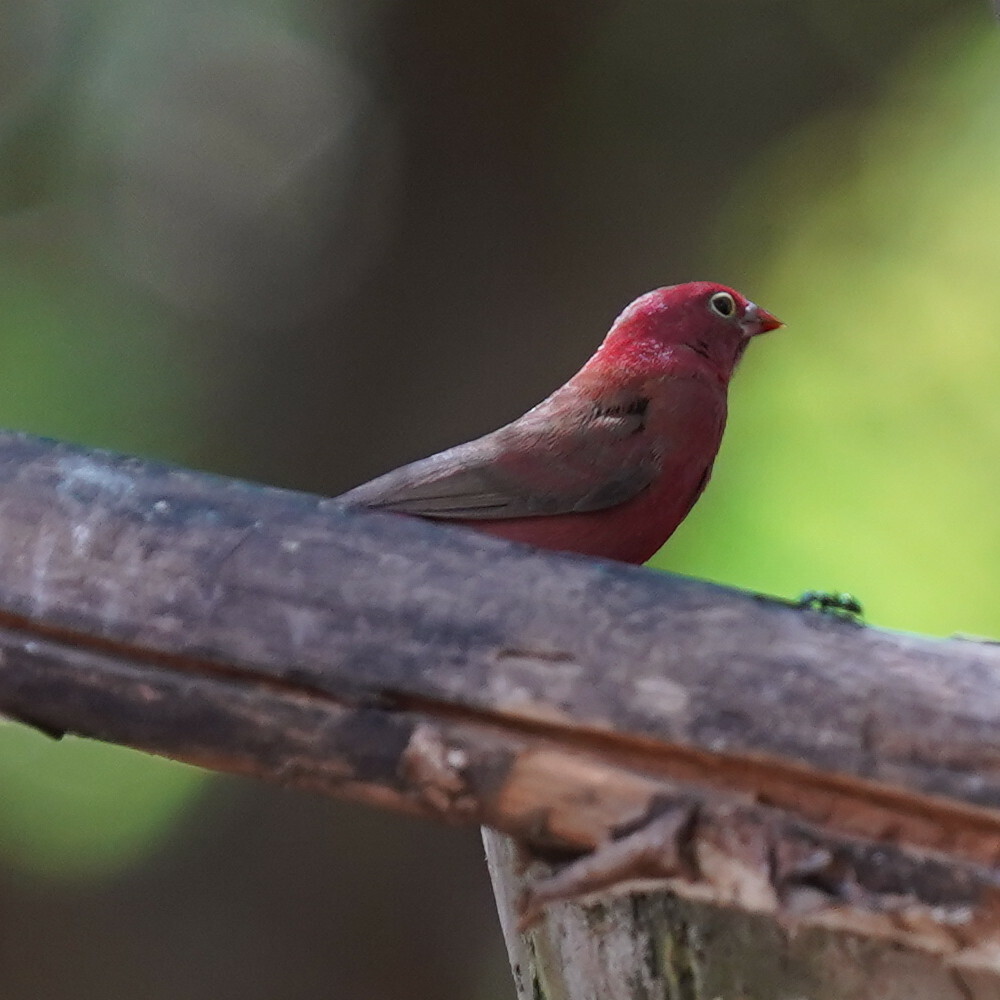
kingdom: Animalia
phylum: Chordata
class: Aves
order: Passeriformes
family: Estrildidae
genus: Lagonosticta
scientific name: Lagonosticta senegala
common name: Red-billed firefinch
